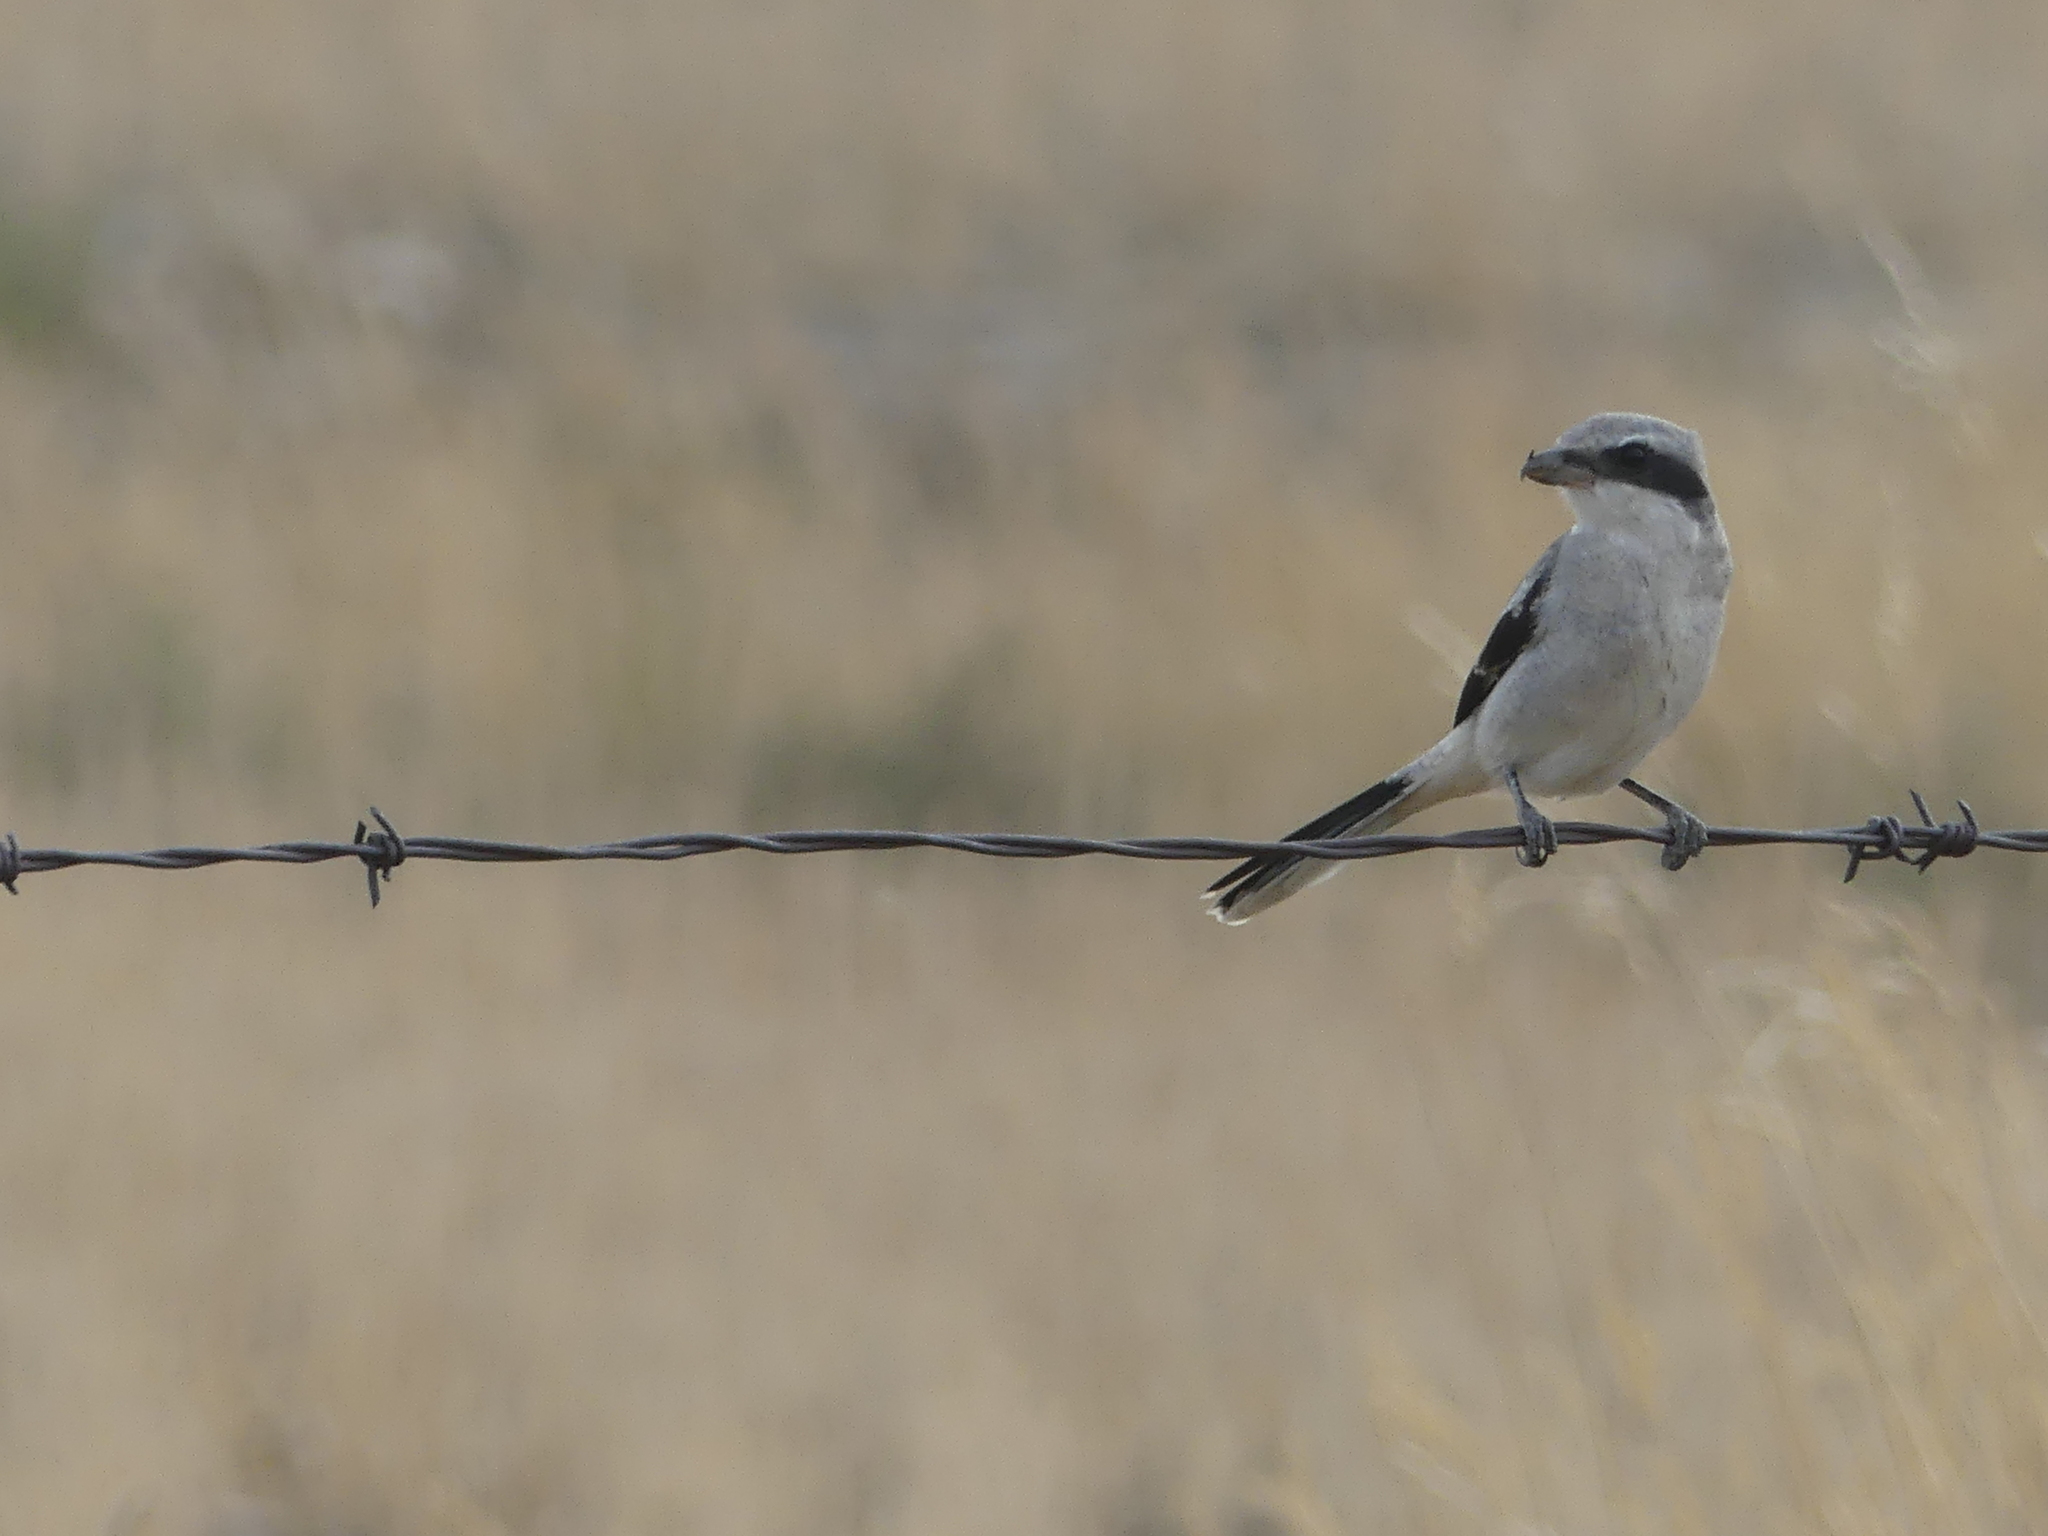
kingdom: Animalia
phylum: Chordata
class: Aves
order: Passeriformes
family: Laniidae
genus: Lanius
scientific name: Lanius ludovicianus
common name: Loggerhead shrike
